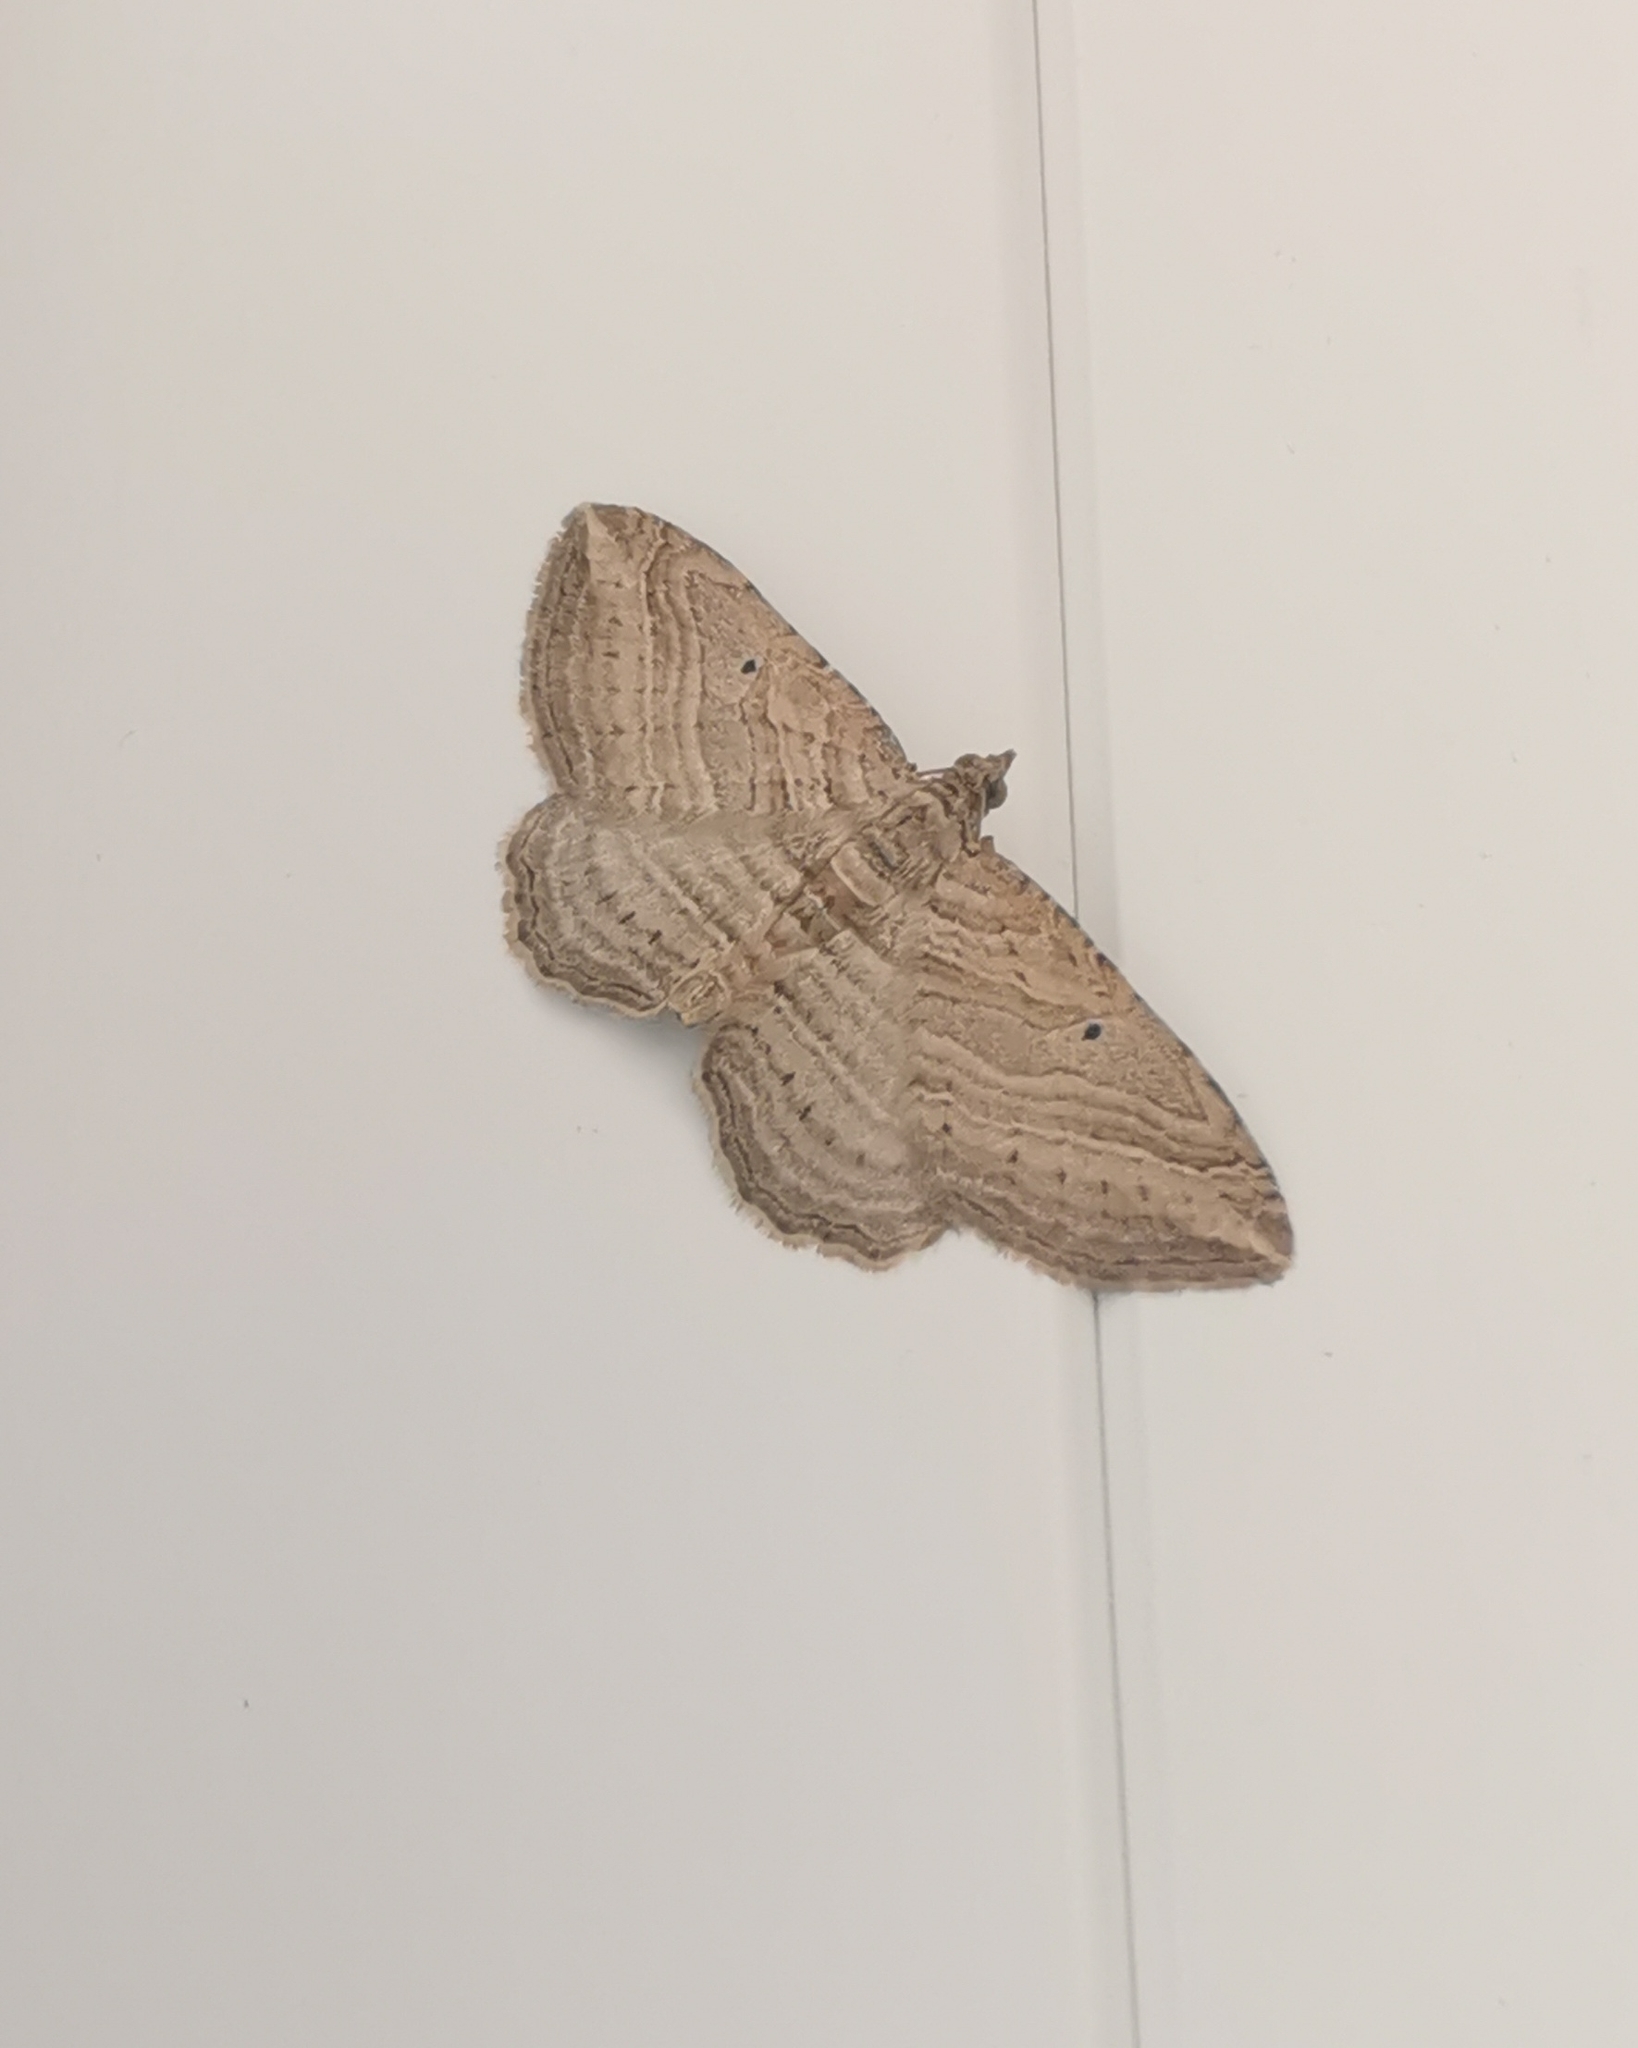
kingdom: Animalia
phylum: Arthropoda
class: Insecta
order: Lepidoptera
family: Geometridae
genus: Costaconvexa
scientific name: Costaconvexa polygrammata
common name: Many-lined
